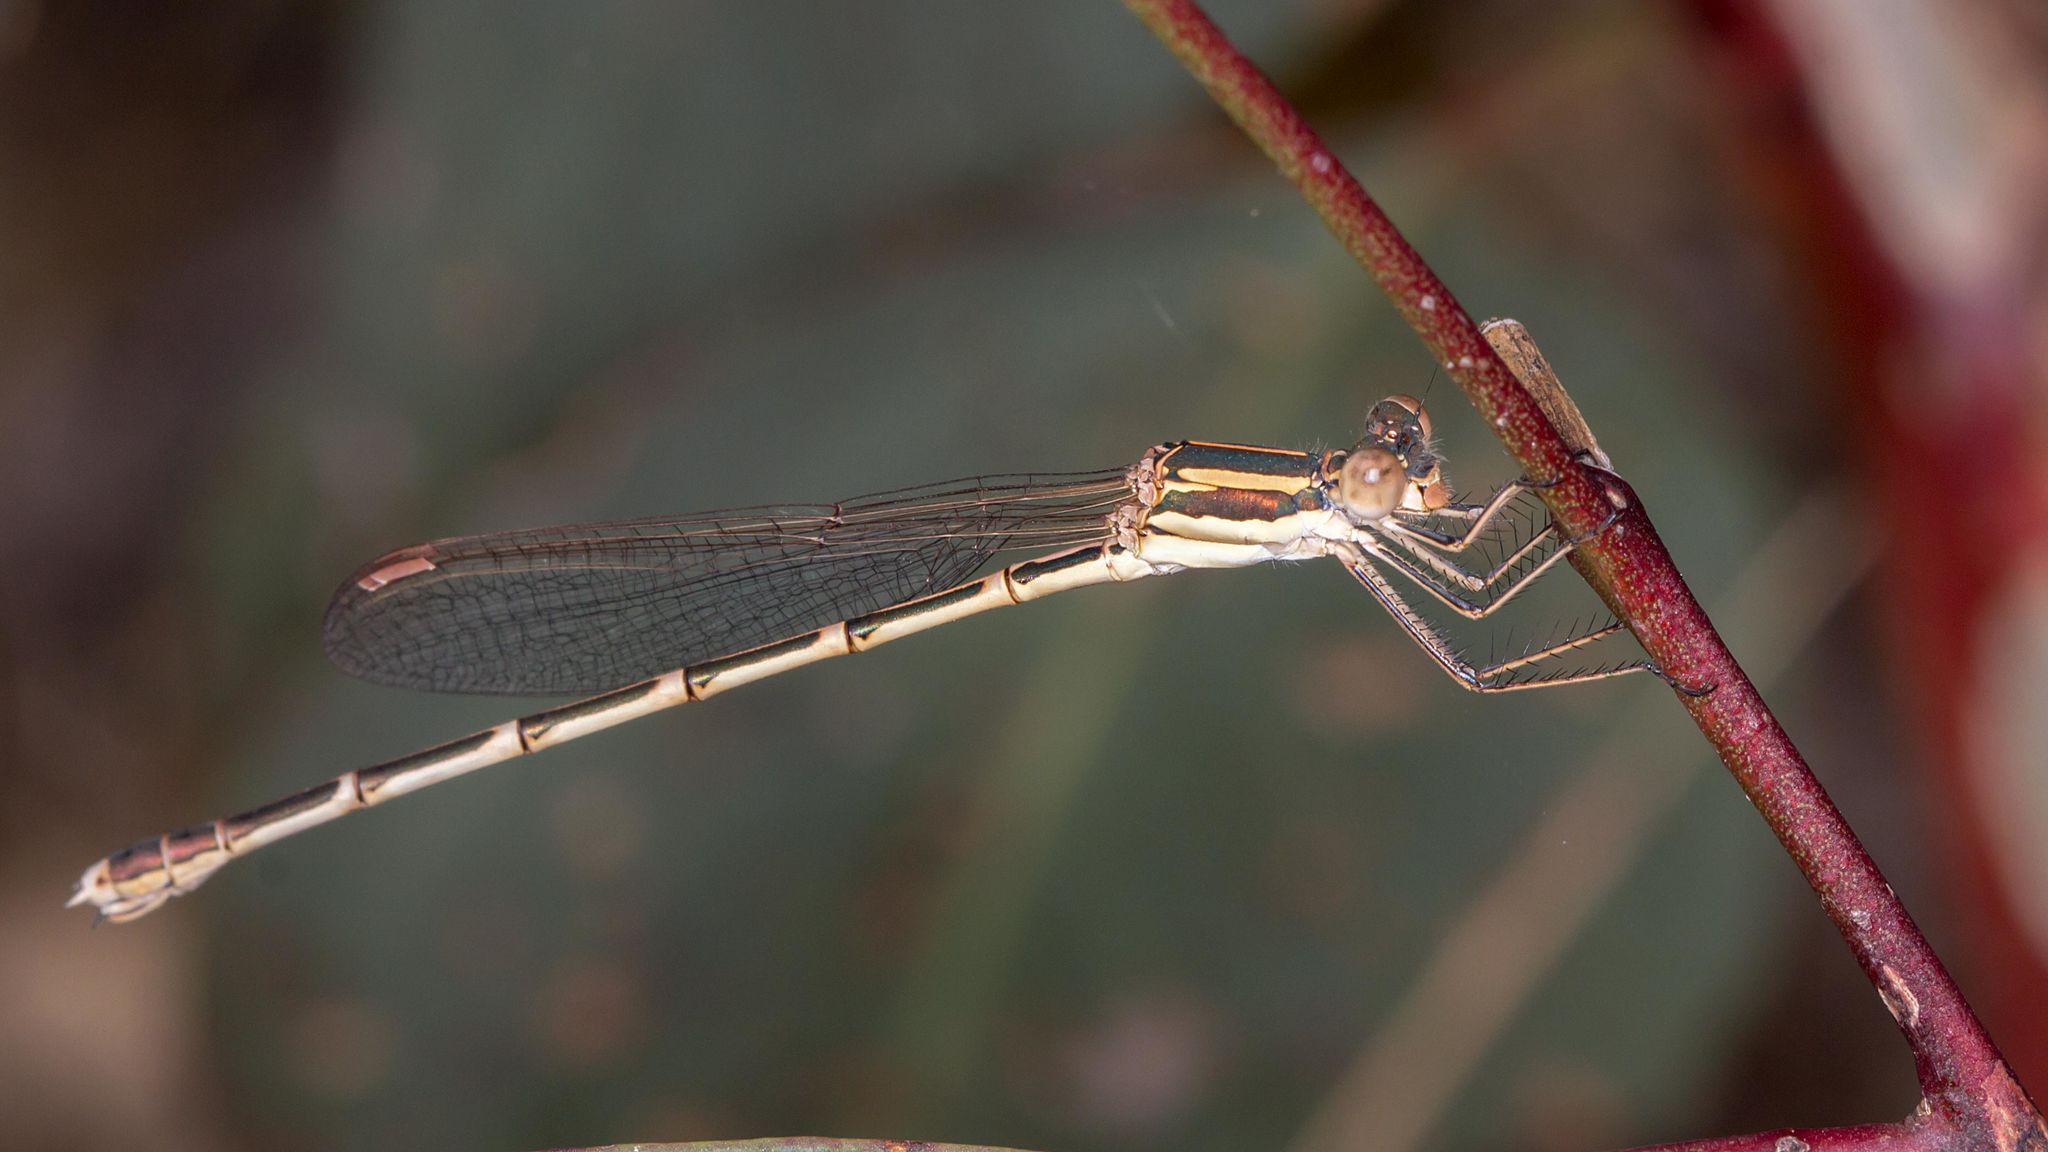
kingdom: Animalia
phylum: Arthropoda
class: Insecta
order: Odonata
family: Lestidae
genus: Austrolestes
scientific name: Austrolestes analis
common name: Slender ringtail
